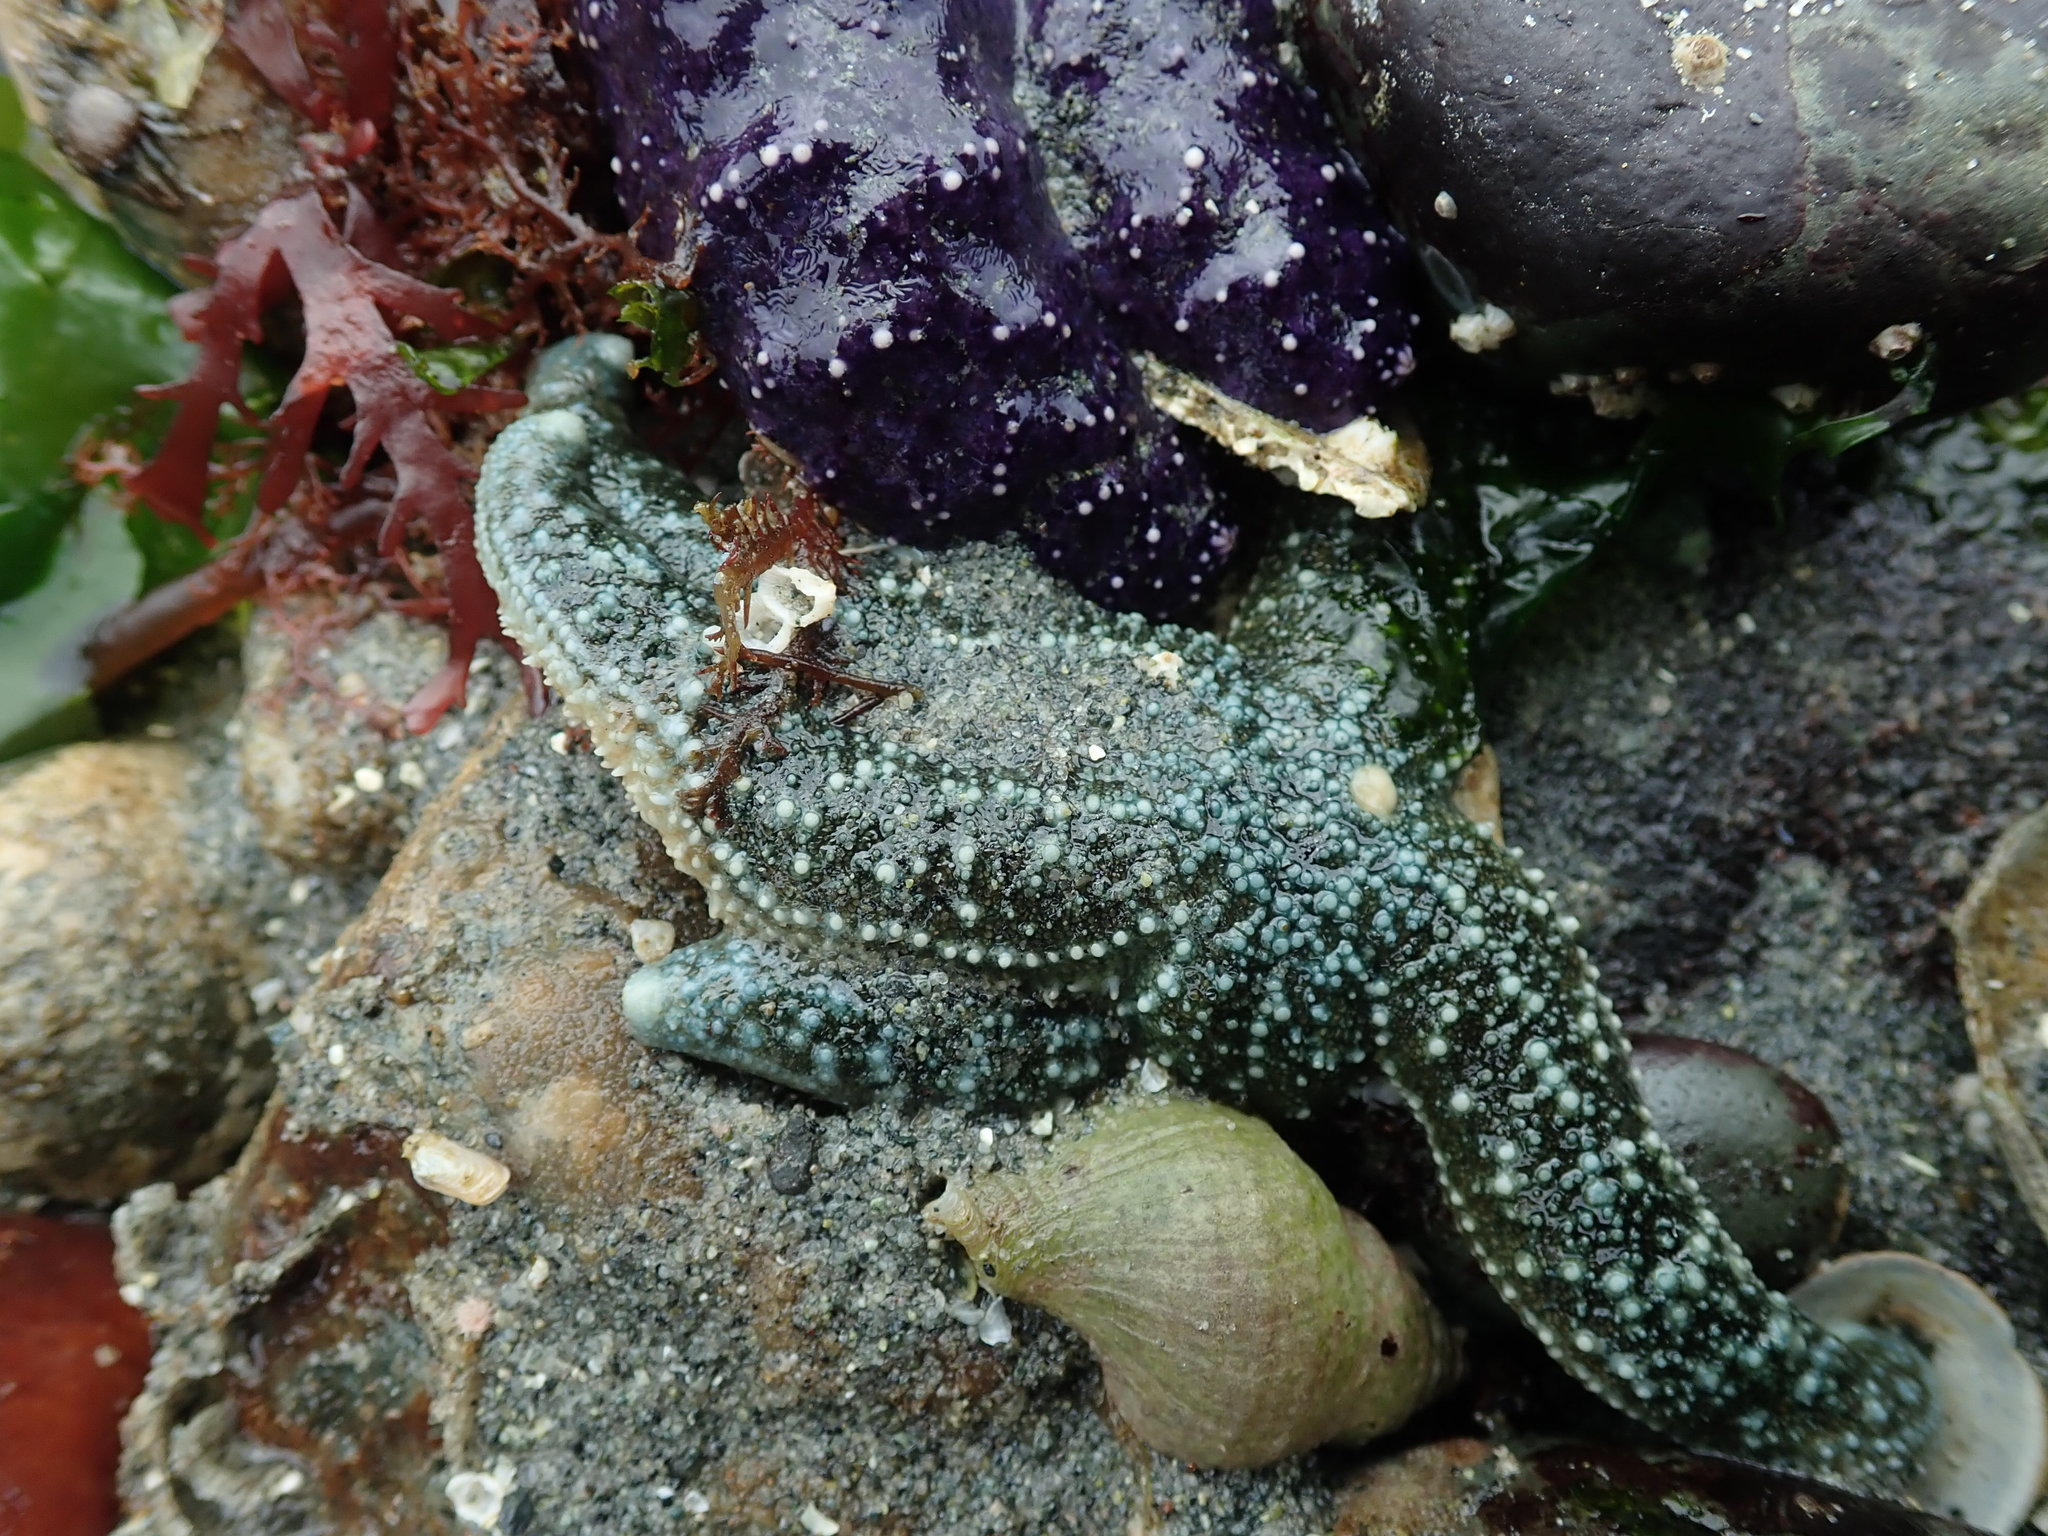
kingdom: Animalia
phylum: Echinodermata
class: Asteroidea
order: Forcipulatida
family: Asteriidae
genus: Evasterias
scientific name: Evasterias troschelii
